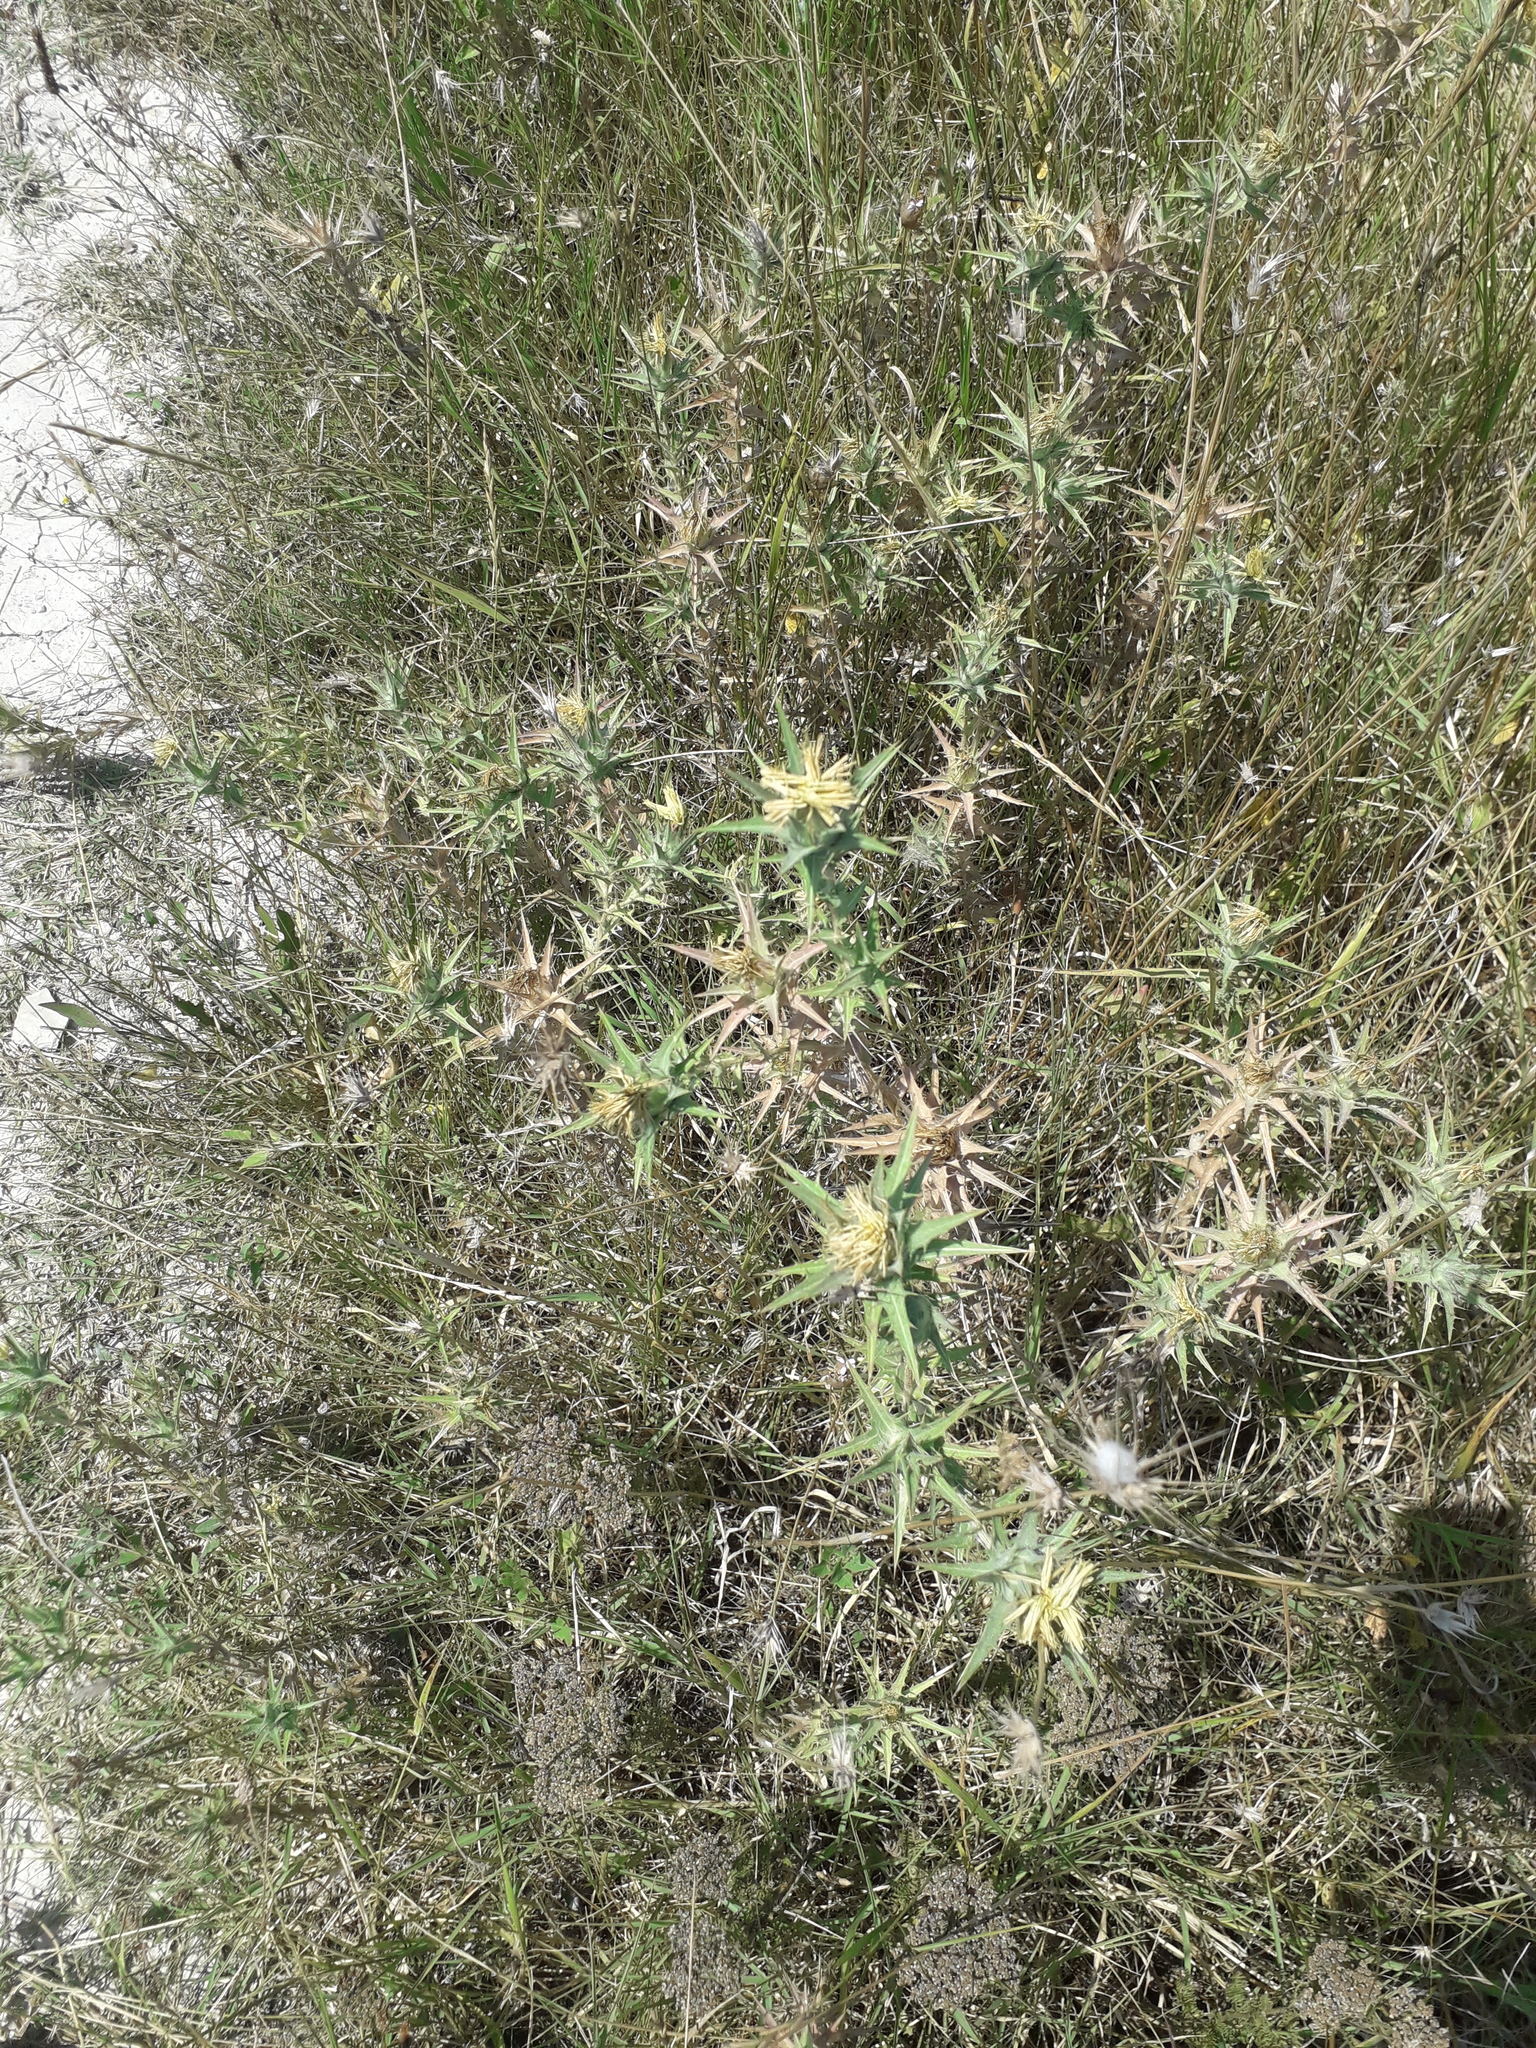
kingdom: Plantae
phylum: Tracheophyta
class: Magnoliopsida
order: Asterales
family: Asteraceae
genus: Carthamus
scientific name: Carthamus lanatus
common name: Downy safflower
